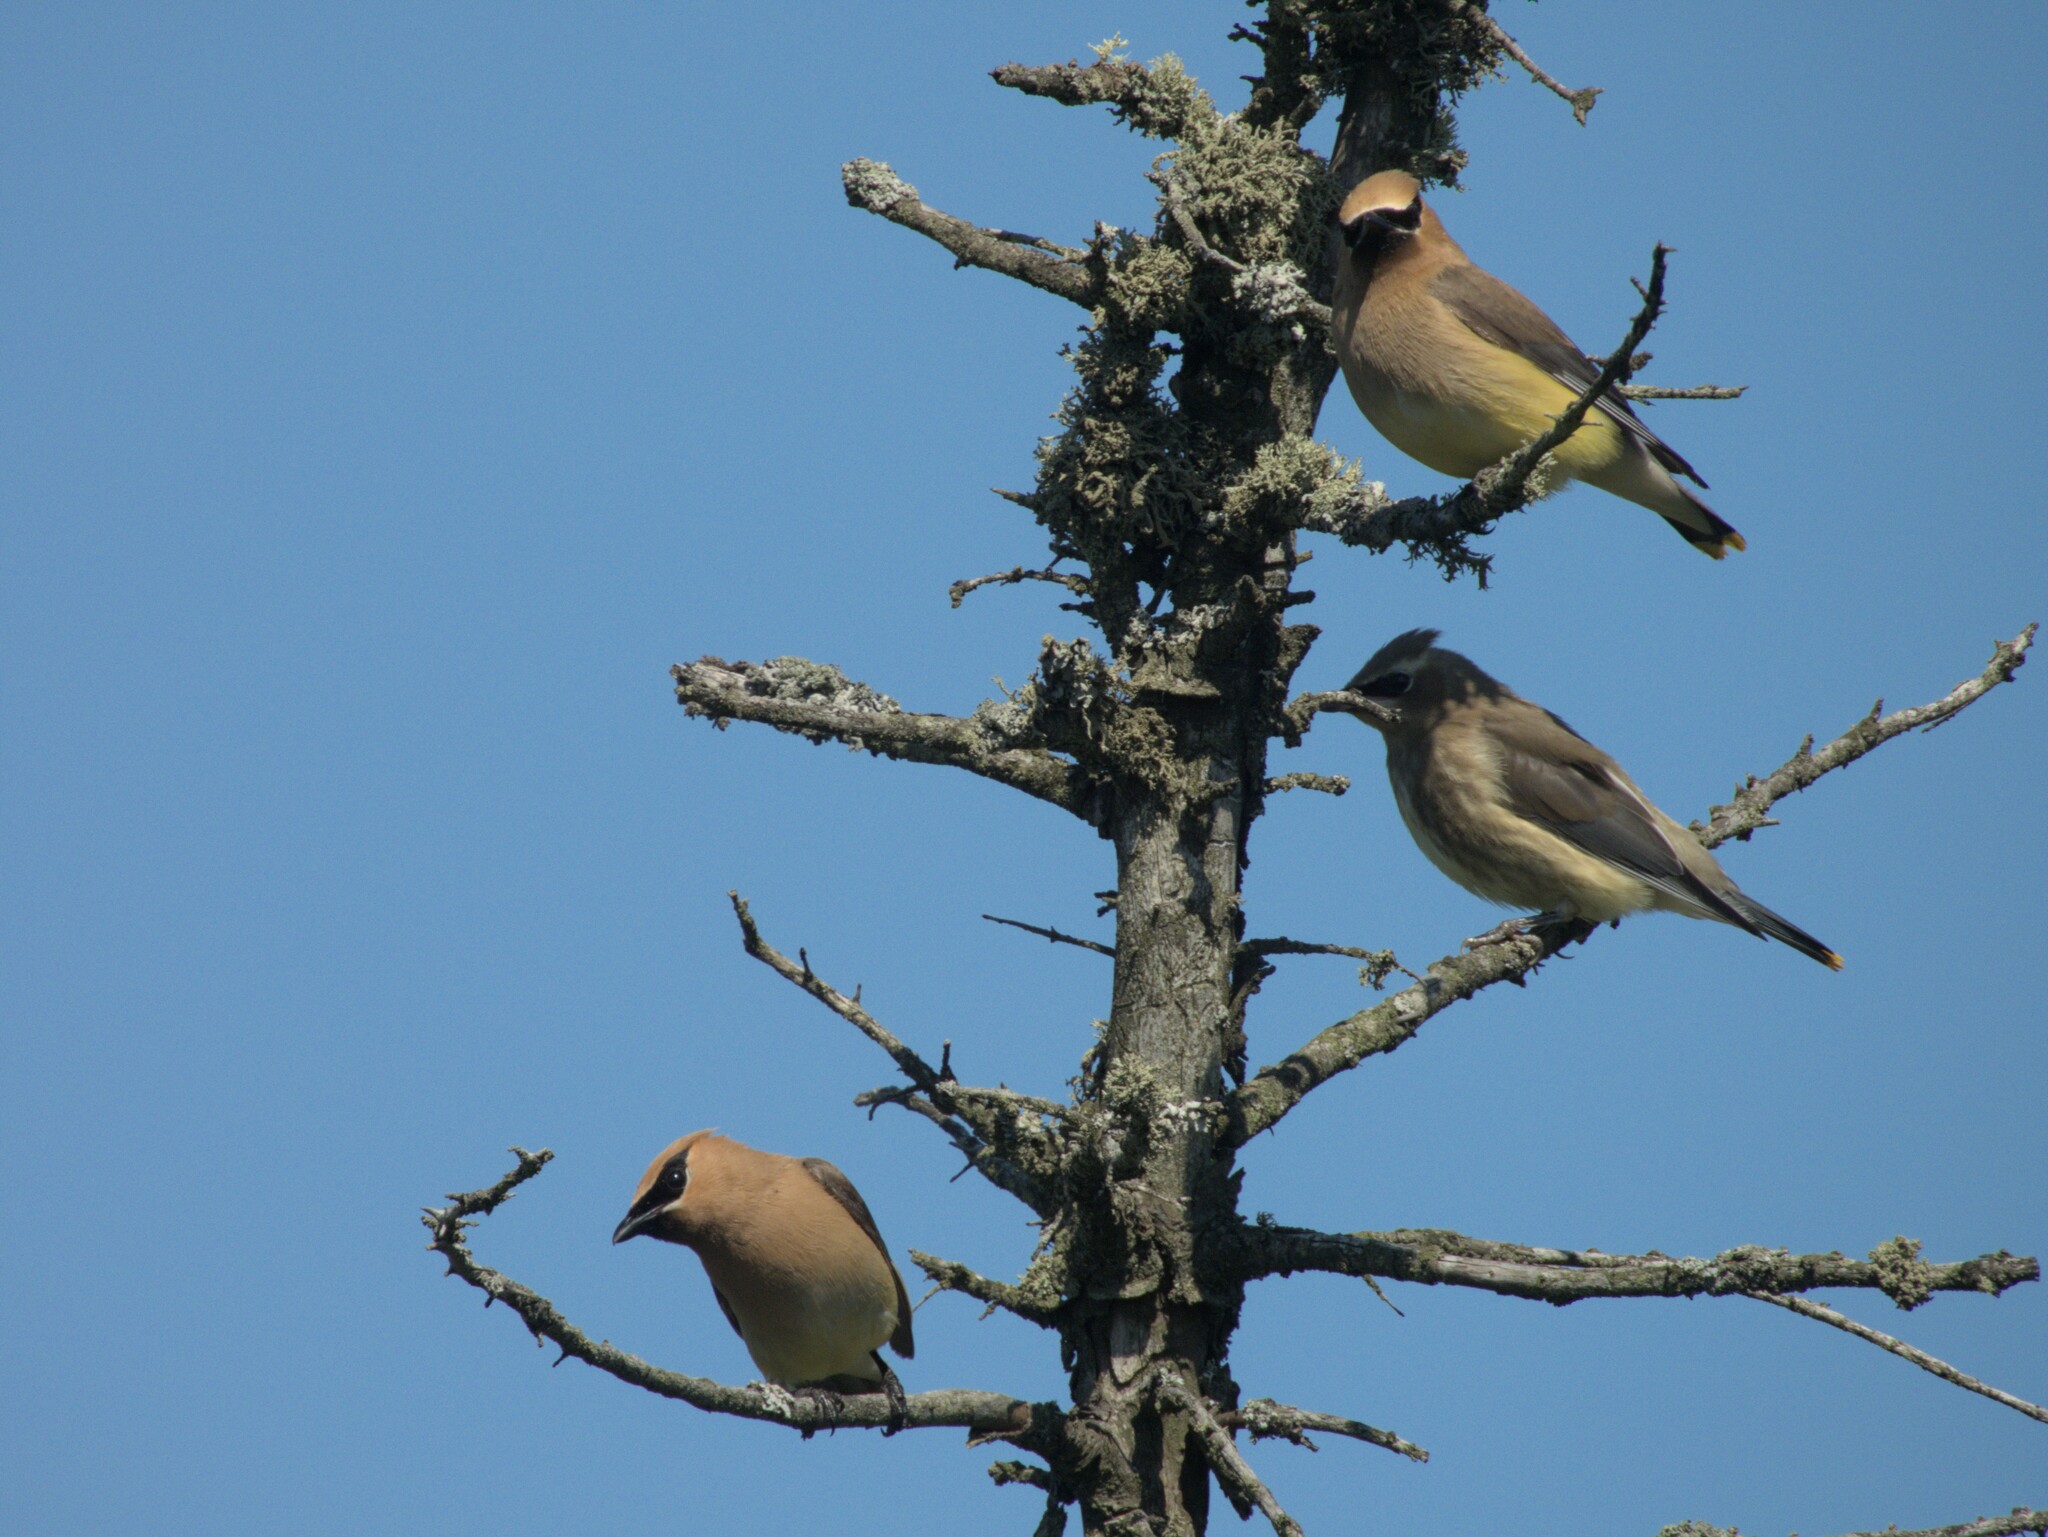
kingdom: Animalia
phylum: Chordata
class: Aves
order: Passeriformes
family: Bombycillidae
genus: Bombycilla
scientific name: Bombycilla cedrorum
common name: Cedar waxwing
